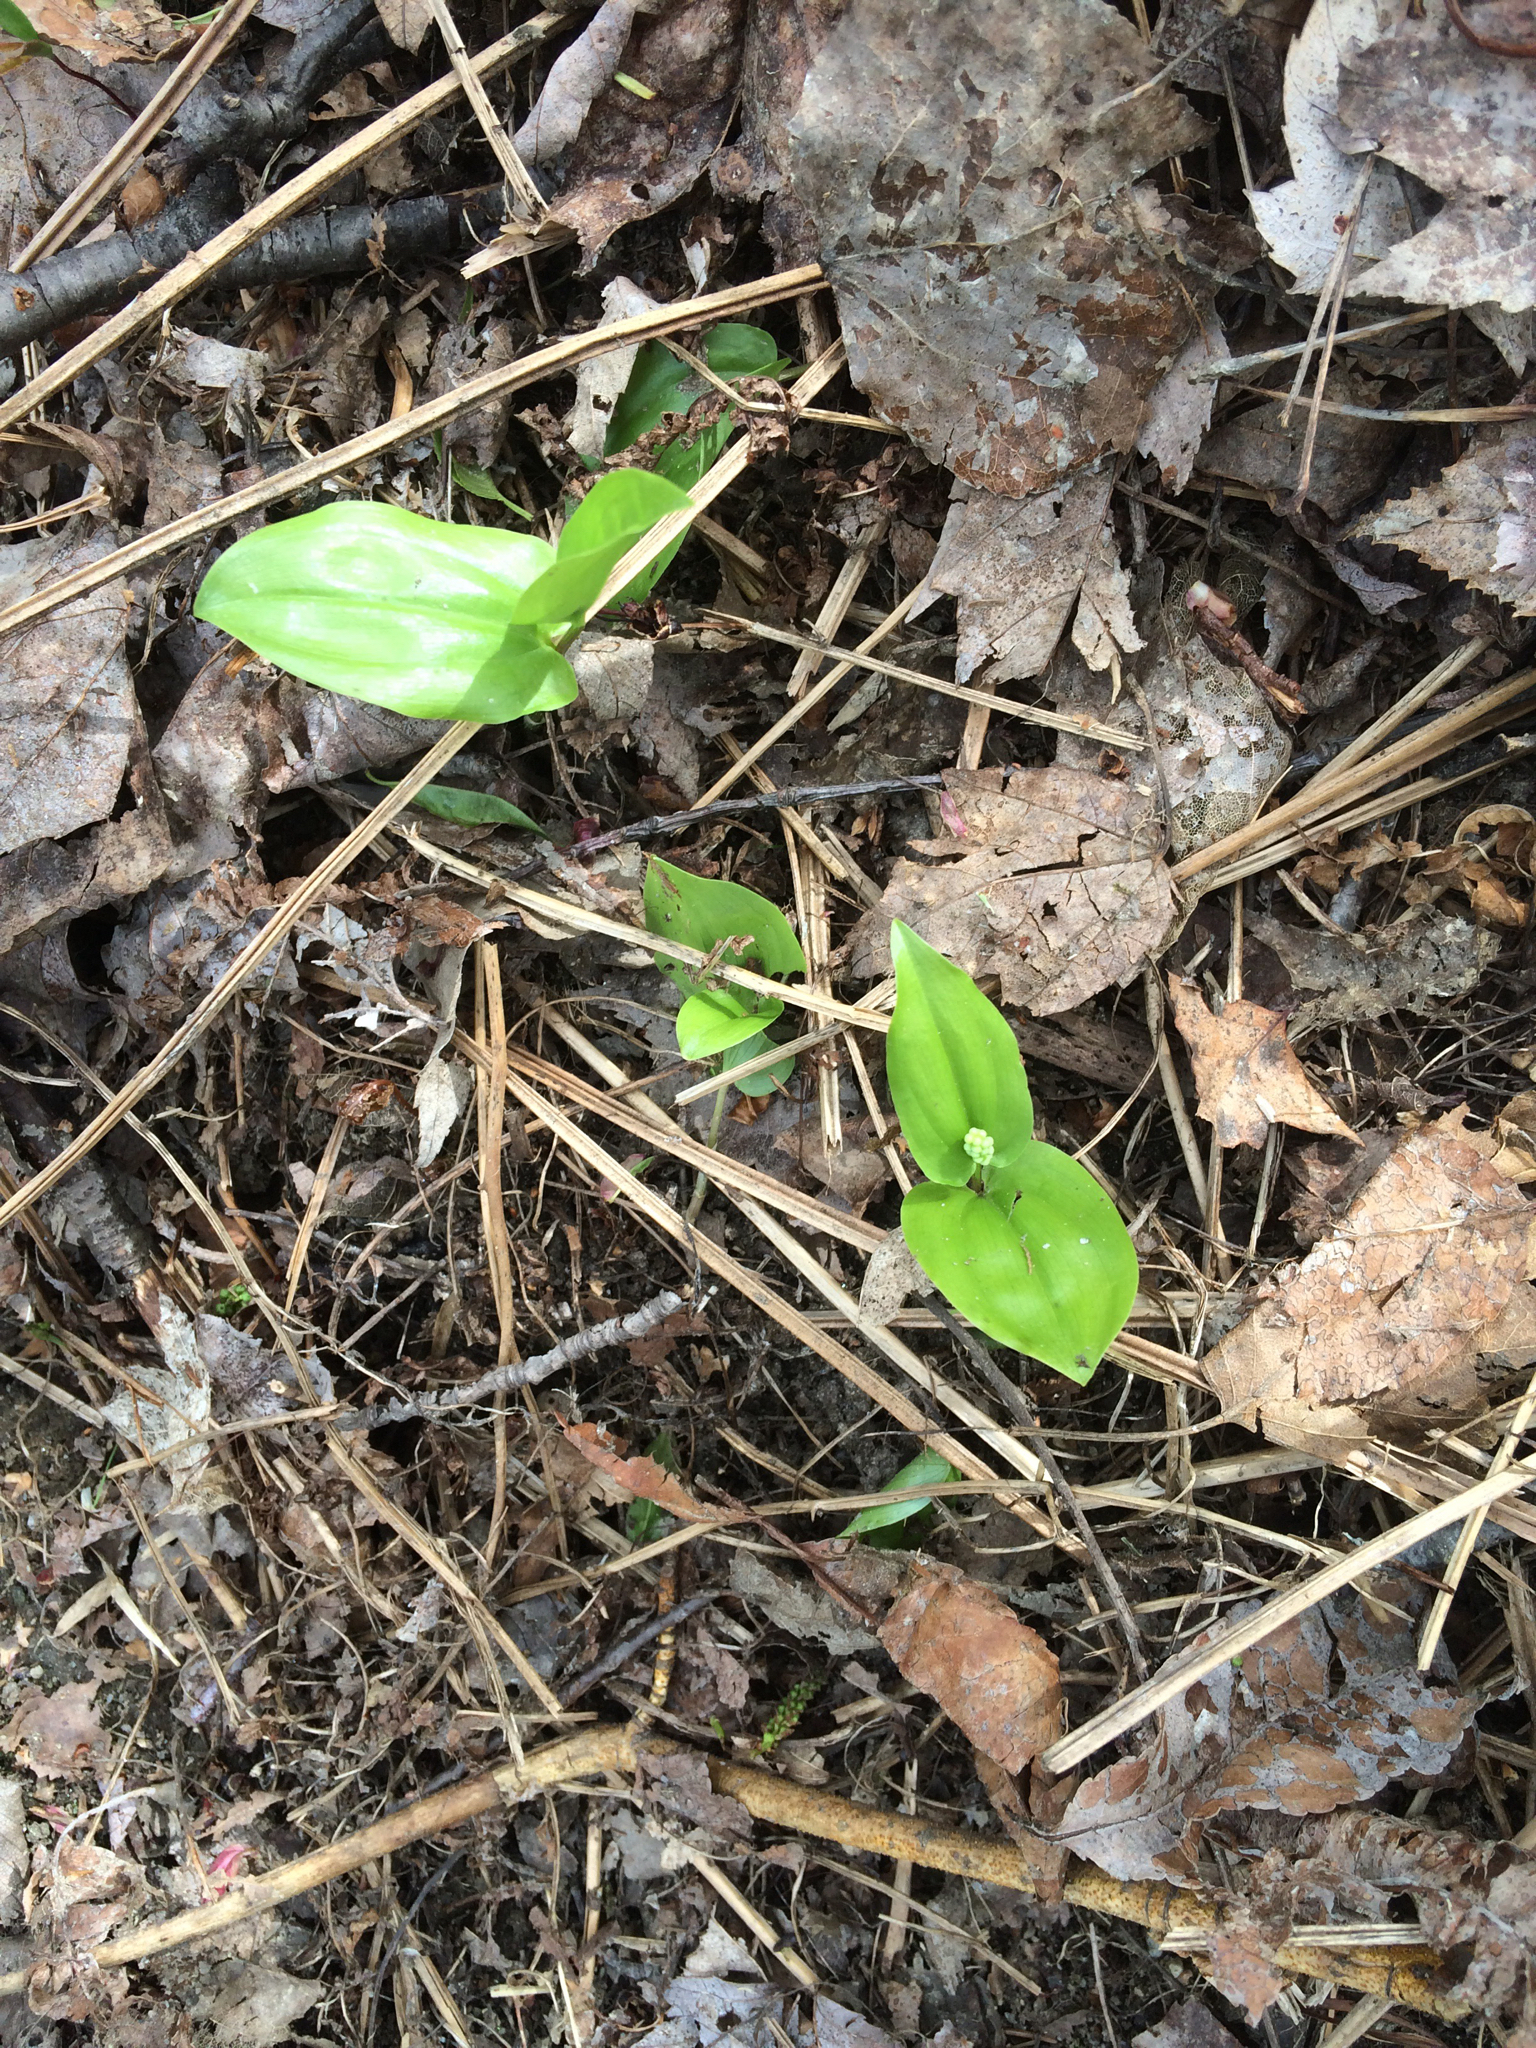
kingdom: Plantae
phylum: Tracheophyta
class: Liliopsida
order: Asparagales
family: Asparagaceae
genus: Maianthemum
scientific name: Maianthemum canadense
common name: False lily-of-the-valley
